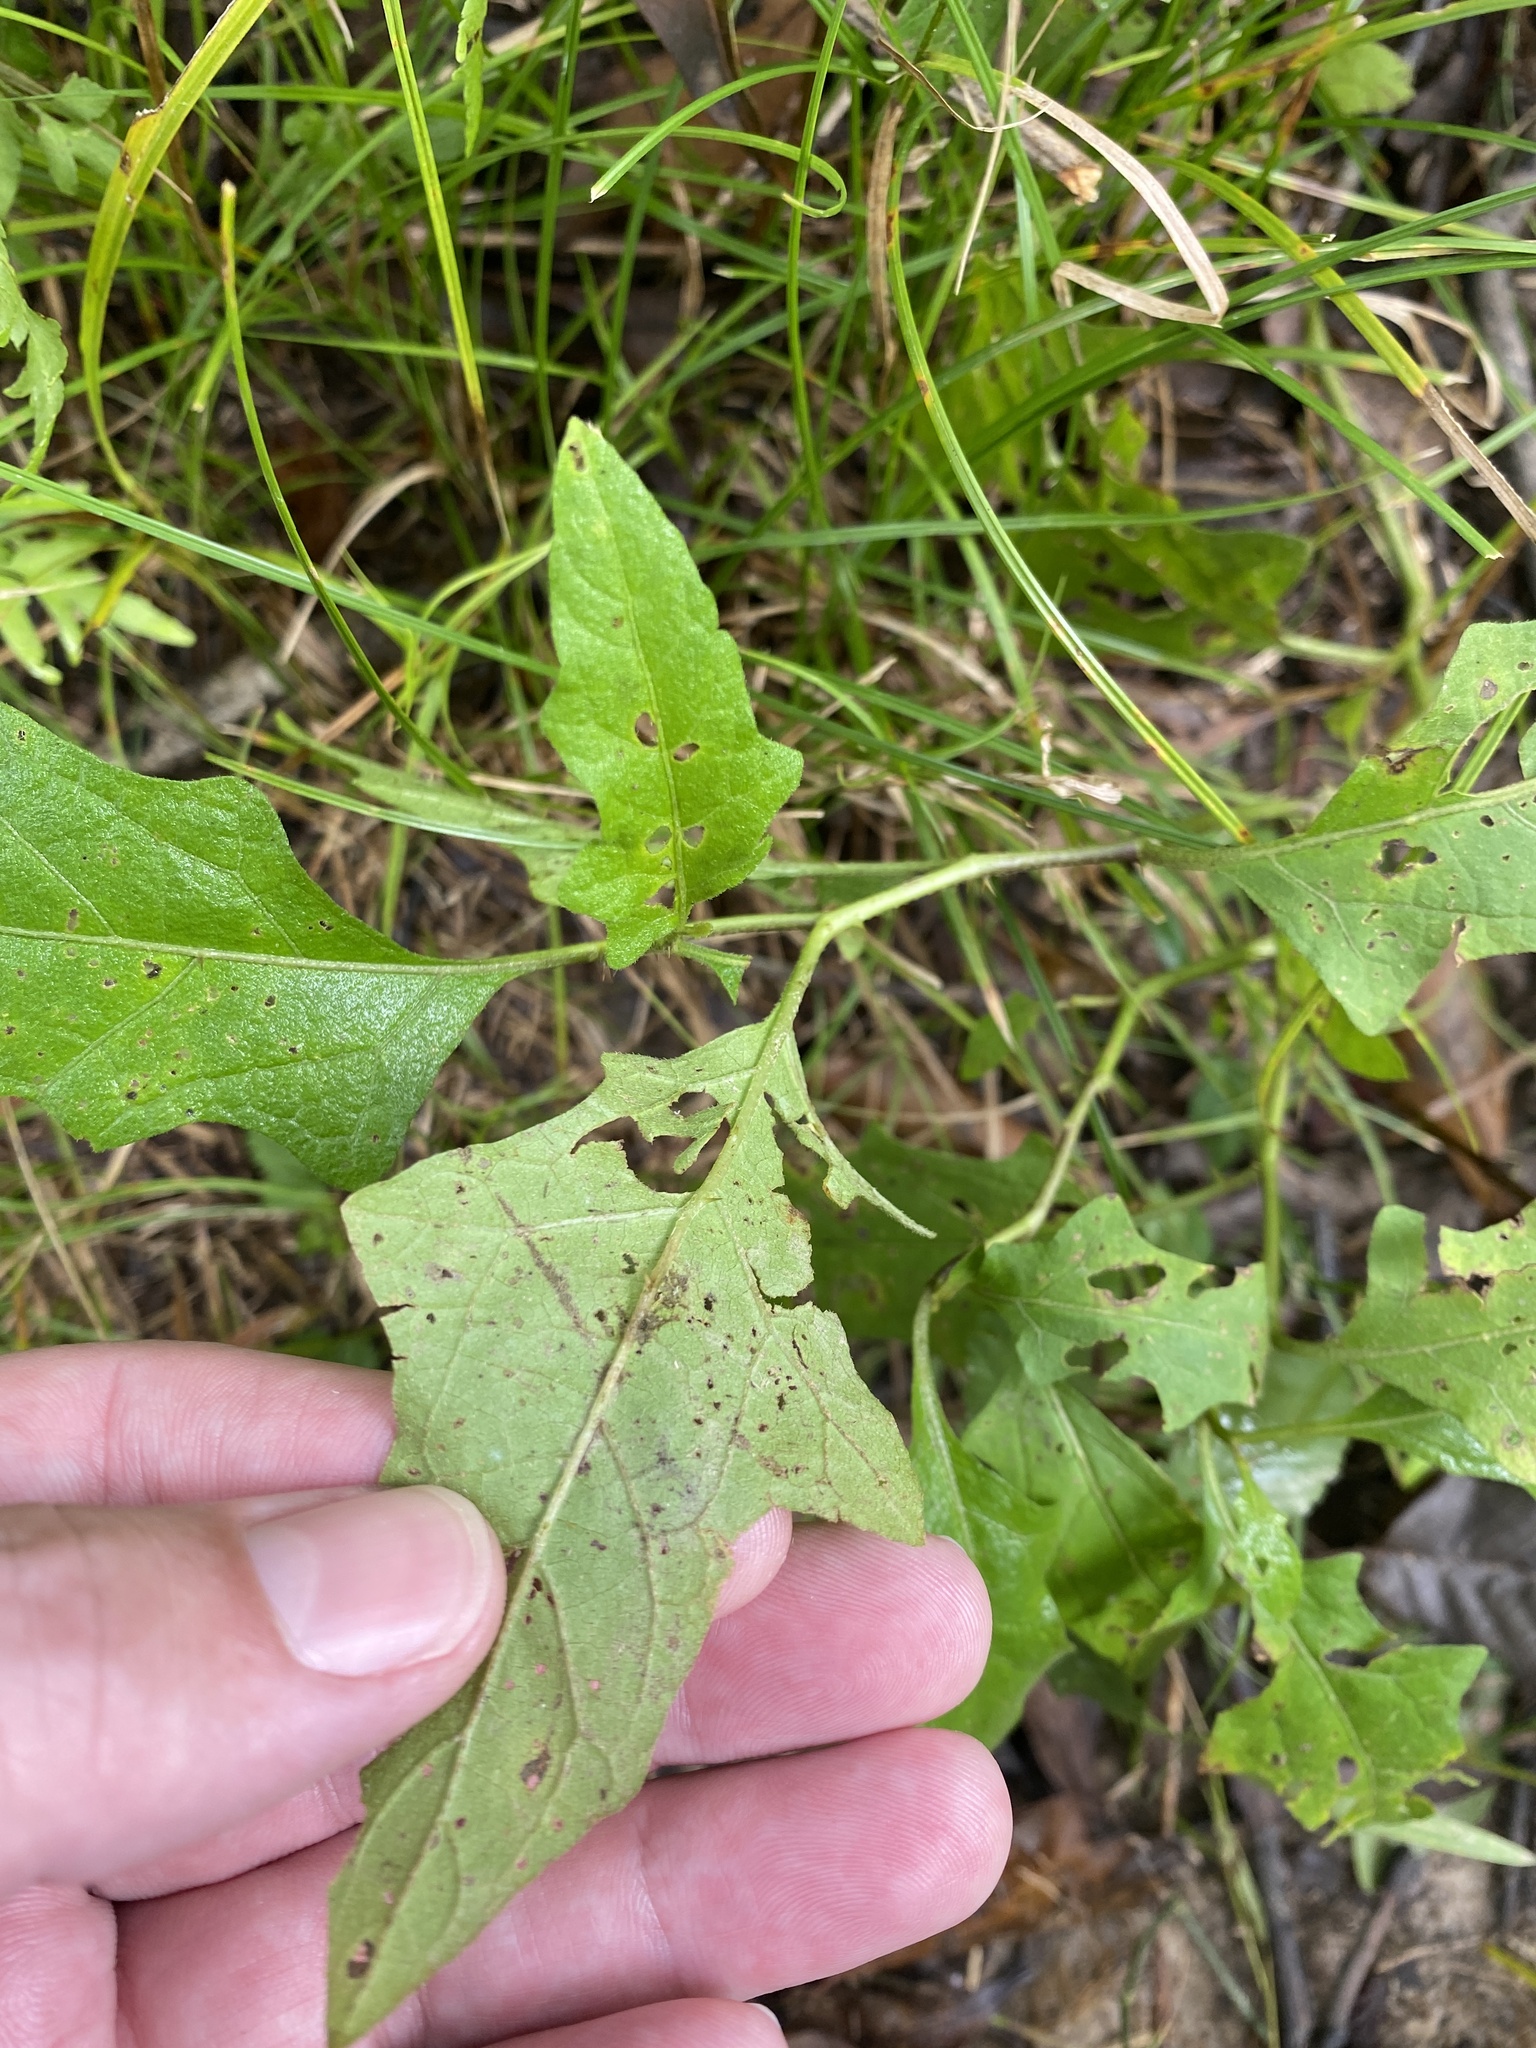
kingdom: Plantae
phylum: Tracheophyta
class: Magnoliopsida
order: Solanales
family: Solanaceae
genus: Solanum
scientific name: Solanum carolinense
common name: Horse-nettle
